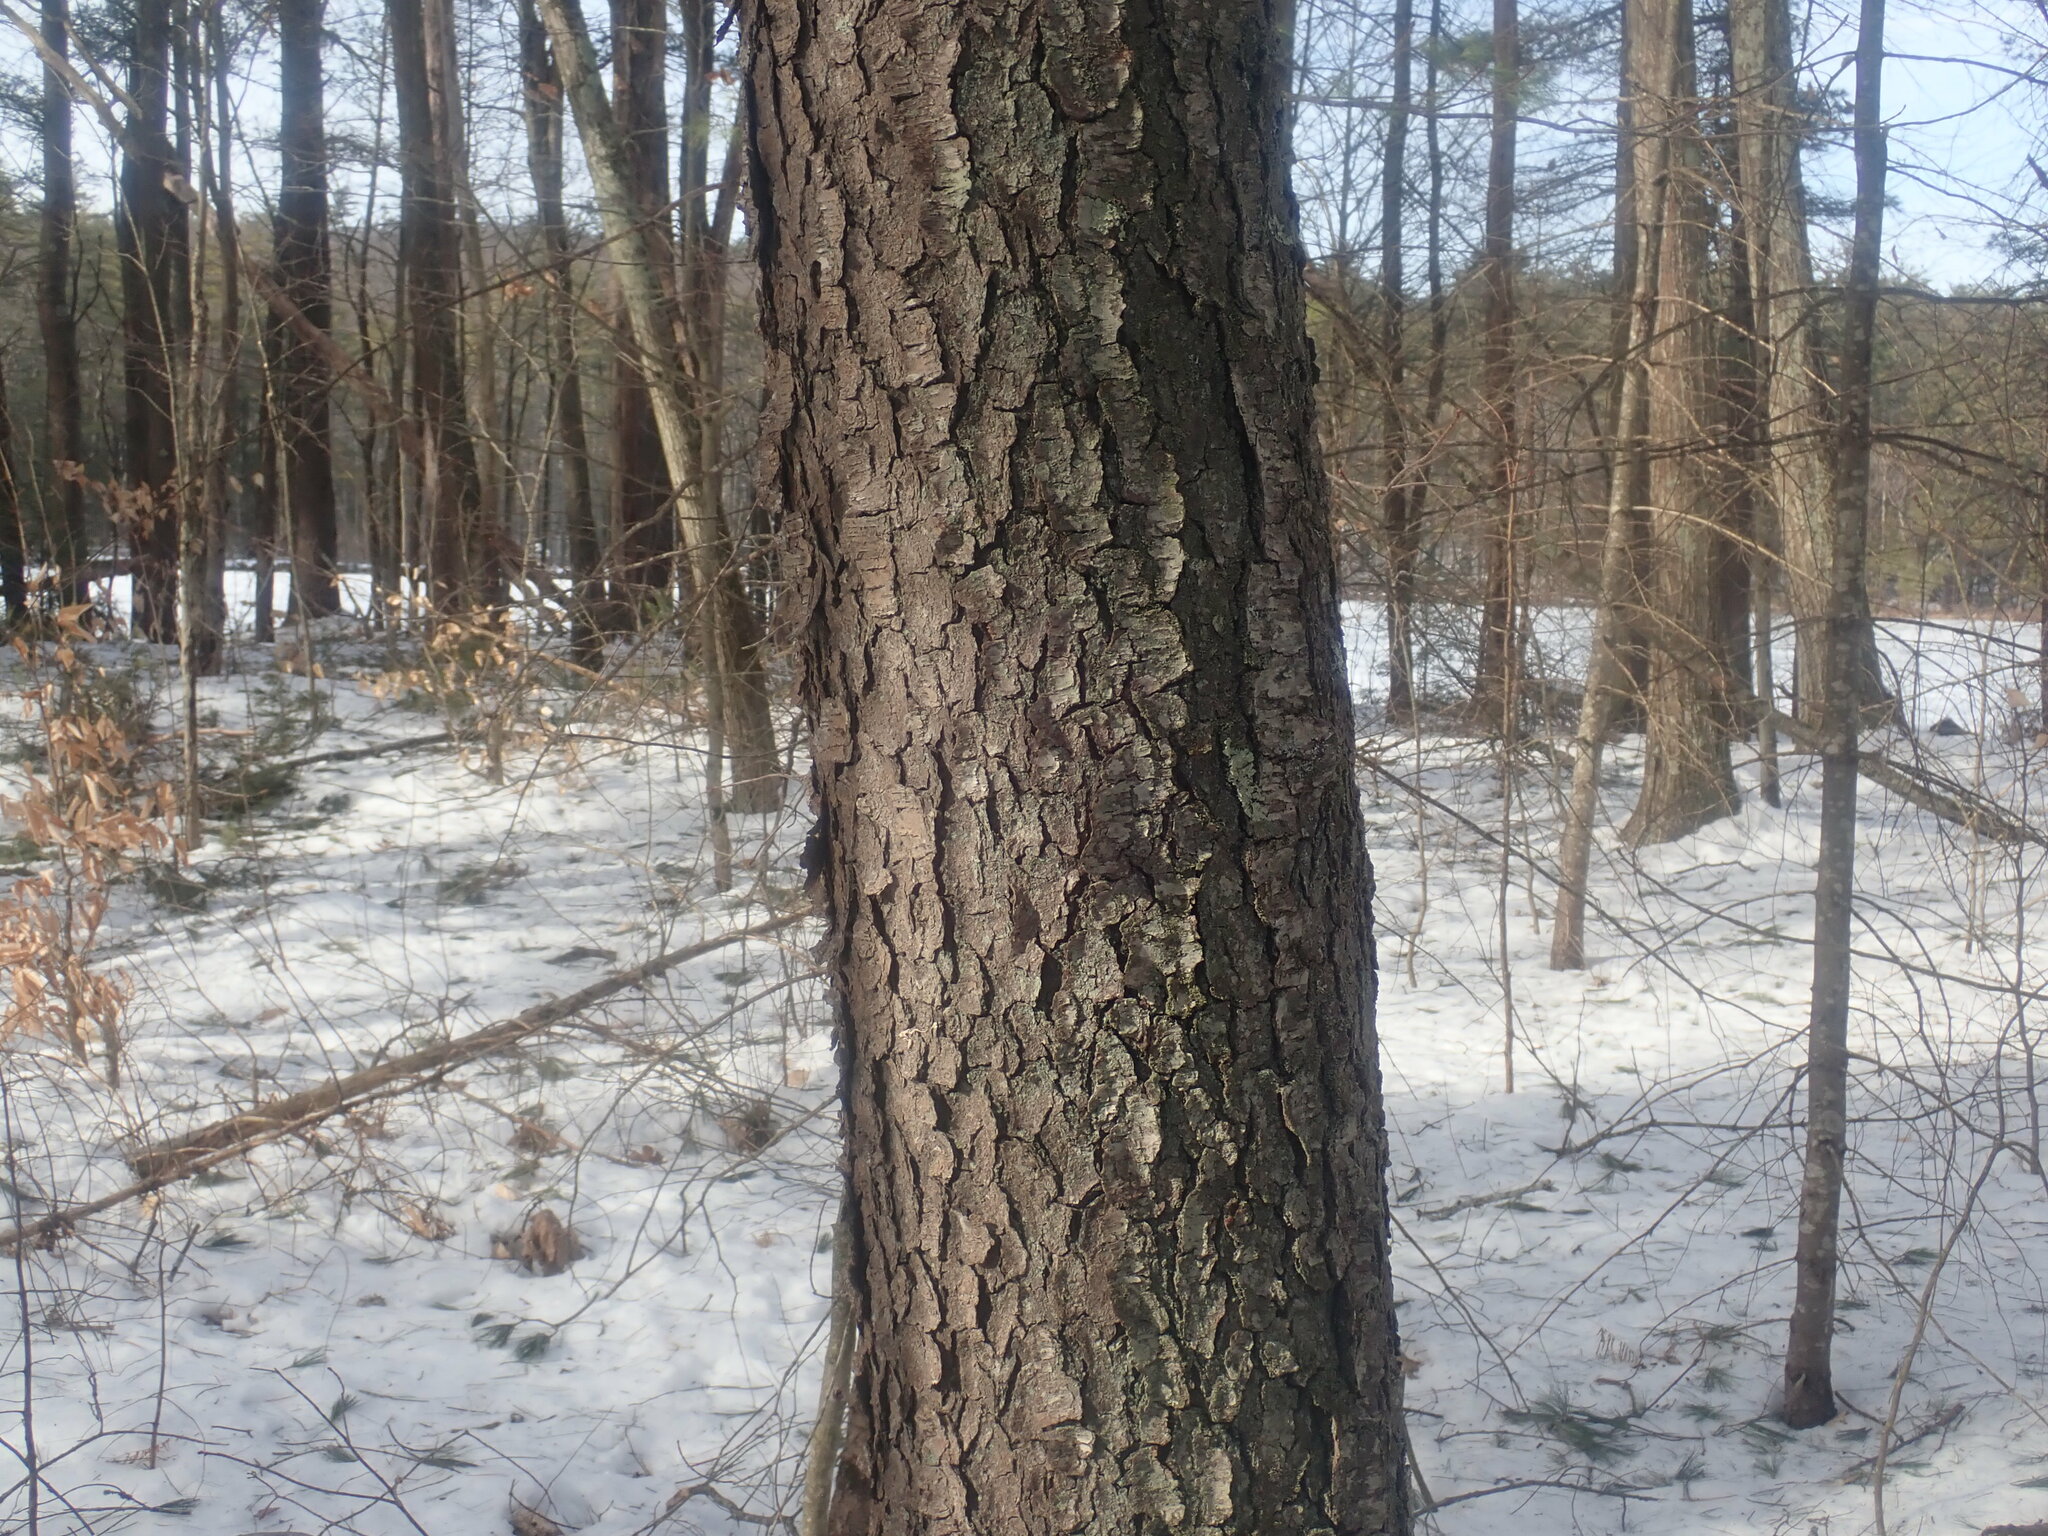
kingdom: Plantae
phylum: Tracheophyta
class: Magnoliopsida
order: Rosales
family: Rosaceae
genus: Prunus
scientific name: Prunus serotina
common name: Black cherry
